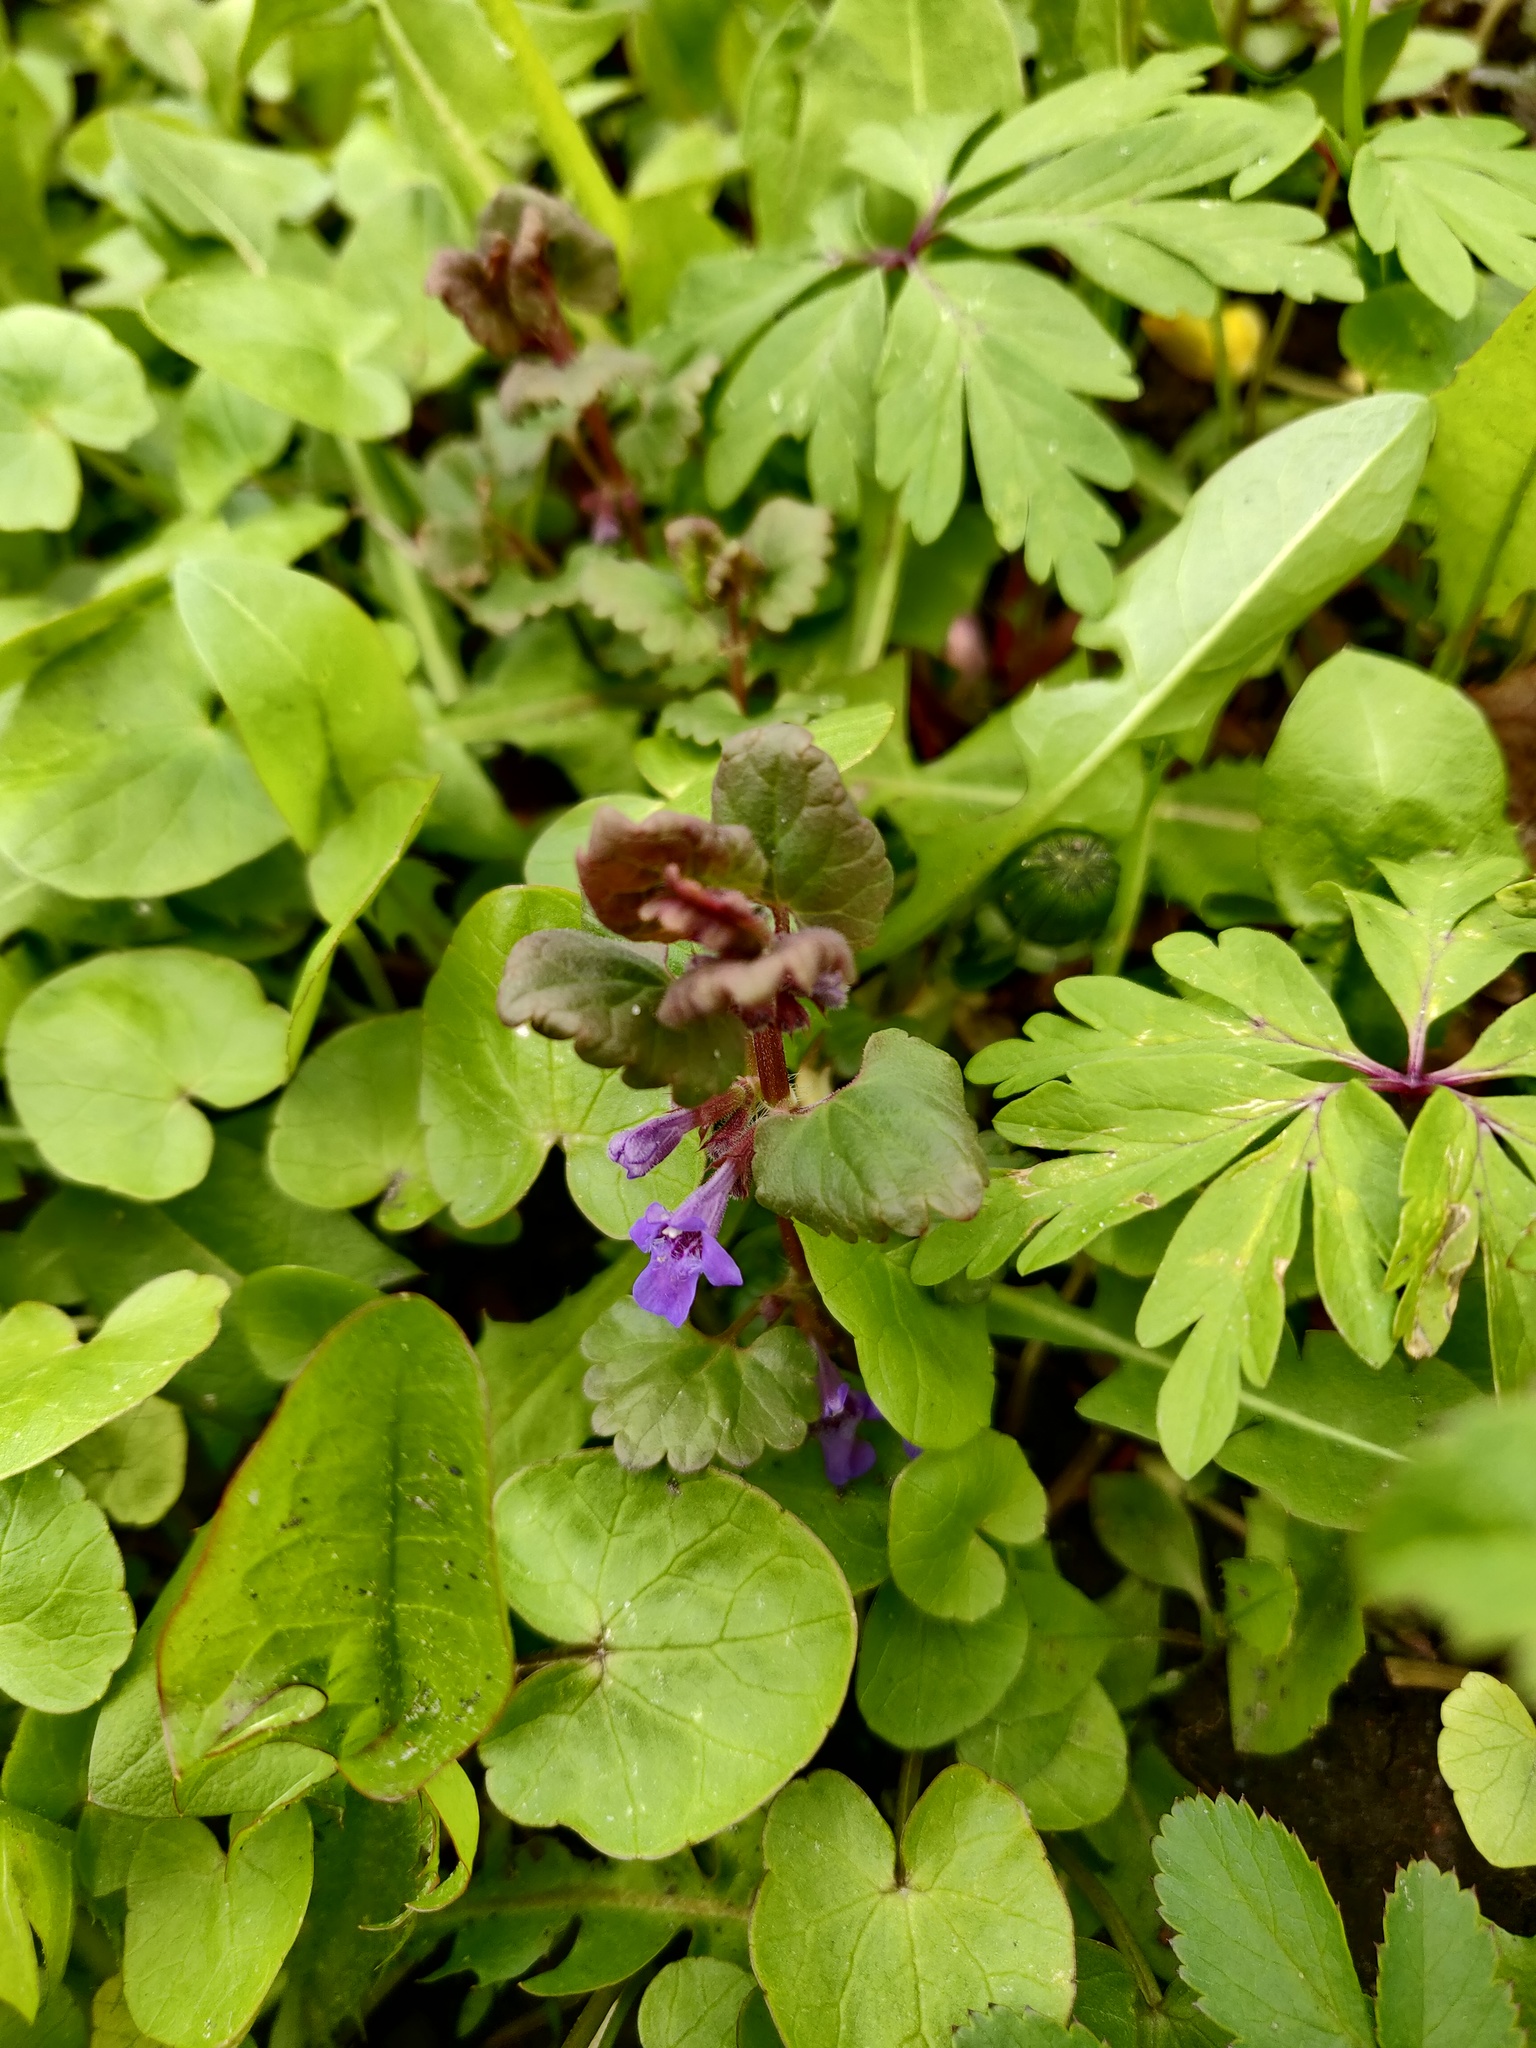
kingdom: Plantae
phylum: Tracheophyta
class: Magnoliopsida
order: Lamiales
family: Lamiaceae
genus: Glechoma
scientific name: Glechoma hederacea
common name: Ground ivy
